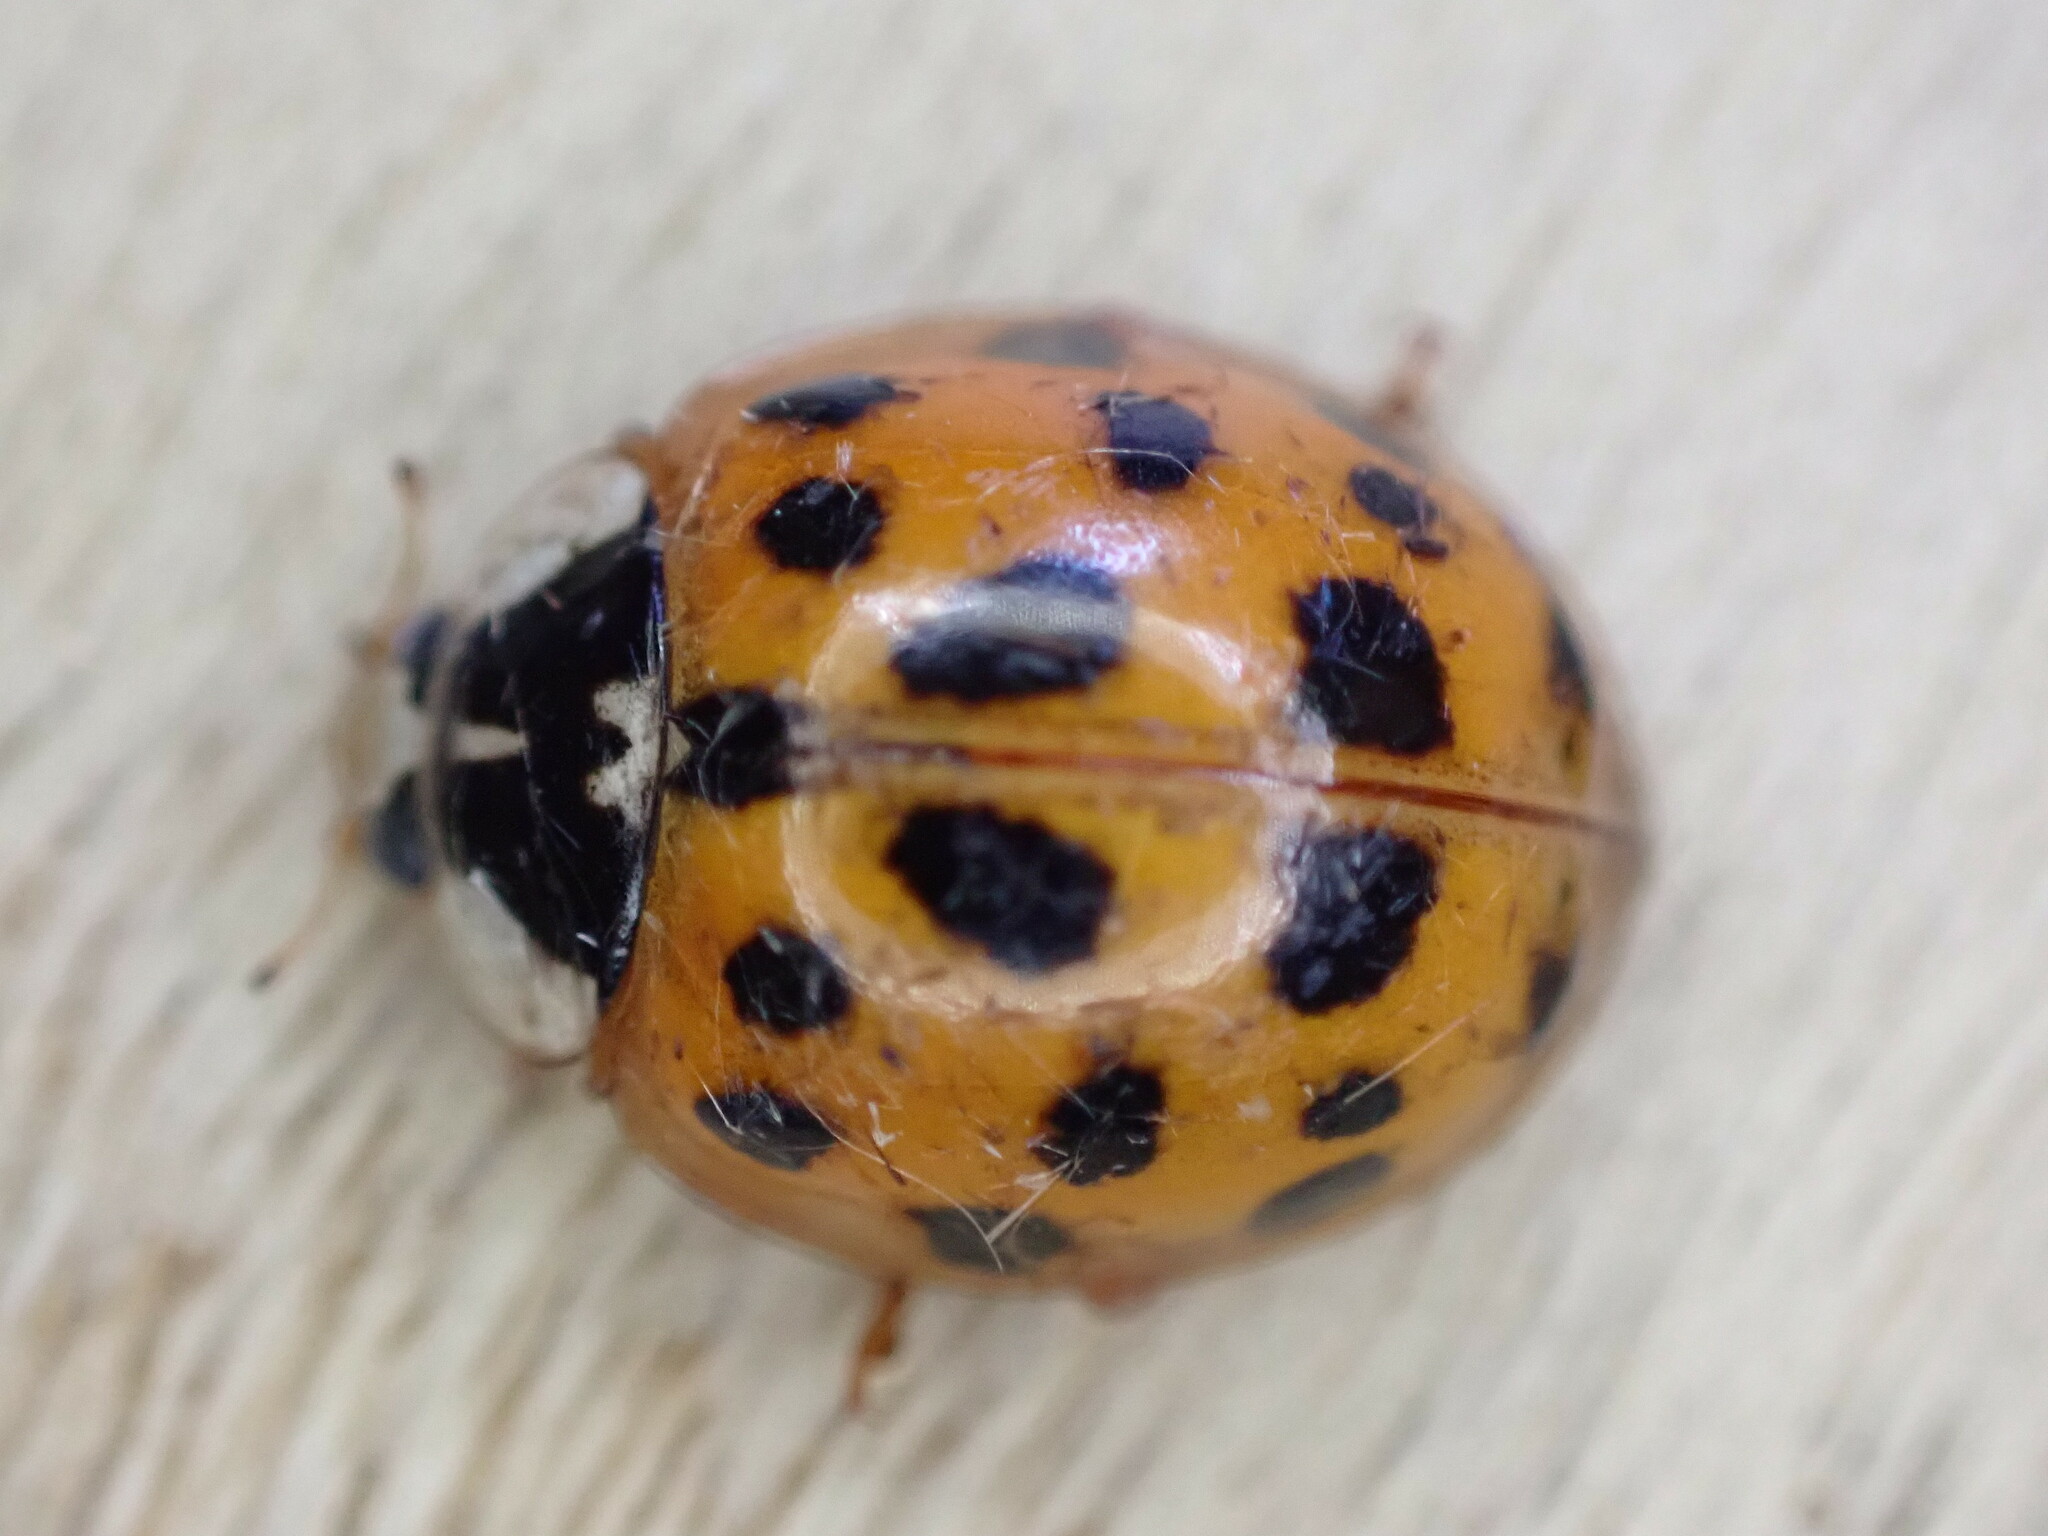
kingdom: Animalia
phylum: Arthropoda
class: Insecta
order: Coleoptera
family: Coccinellidae
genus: Harmonia
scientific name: Harmonia axyridis
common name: Harlequin ladybird
